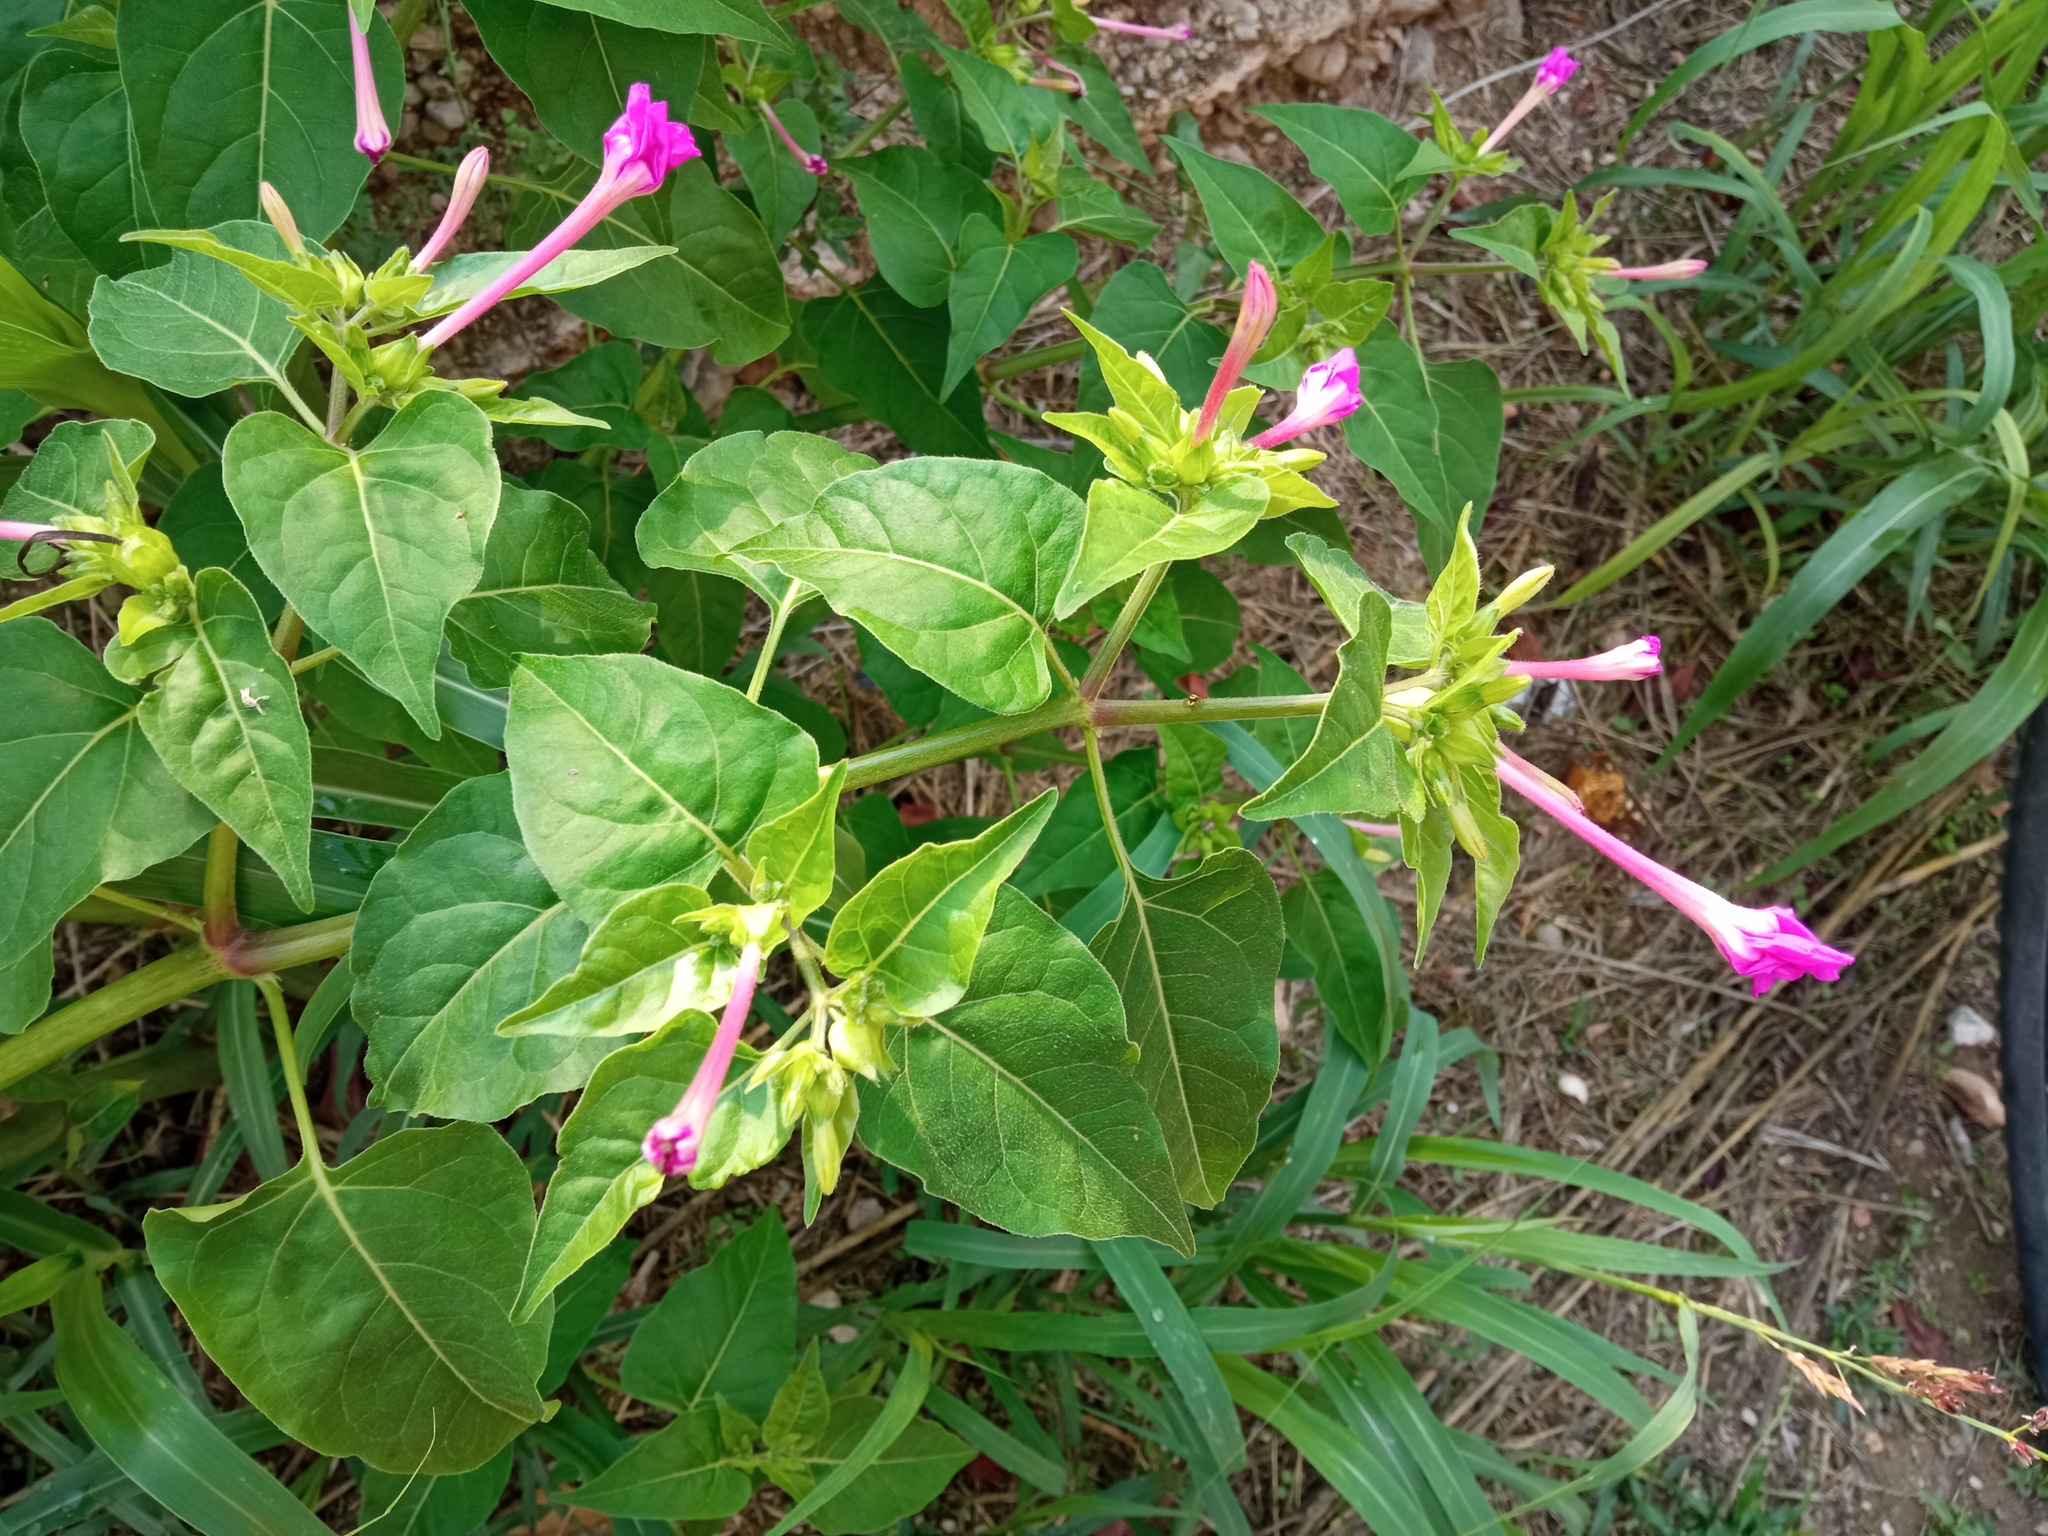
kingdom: Plantae
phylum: Tracheophyta
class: Magnoliopsida
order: Caryophyllales
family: Nyctaginaceae
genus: Mirabilis
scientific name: Mirabilis jalapa
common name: Marvel-of-peru
